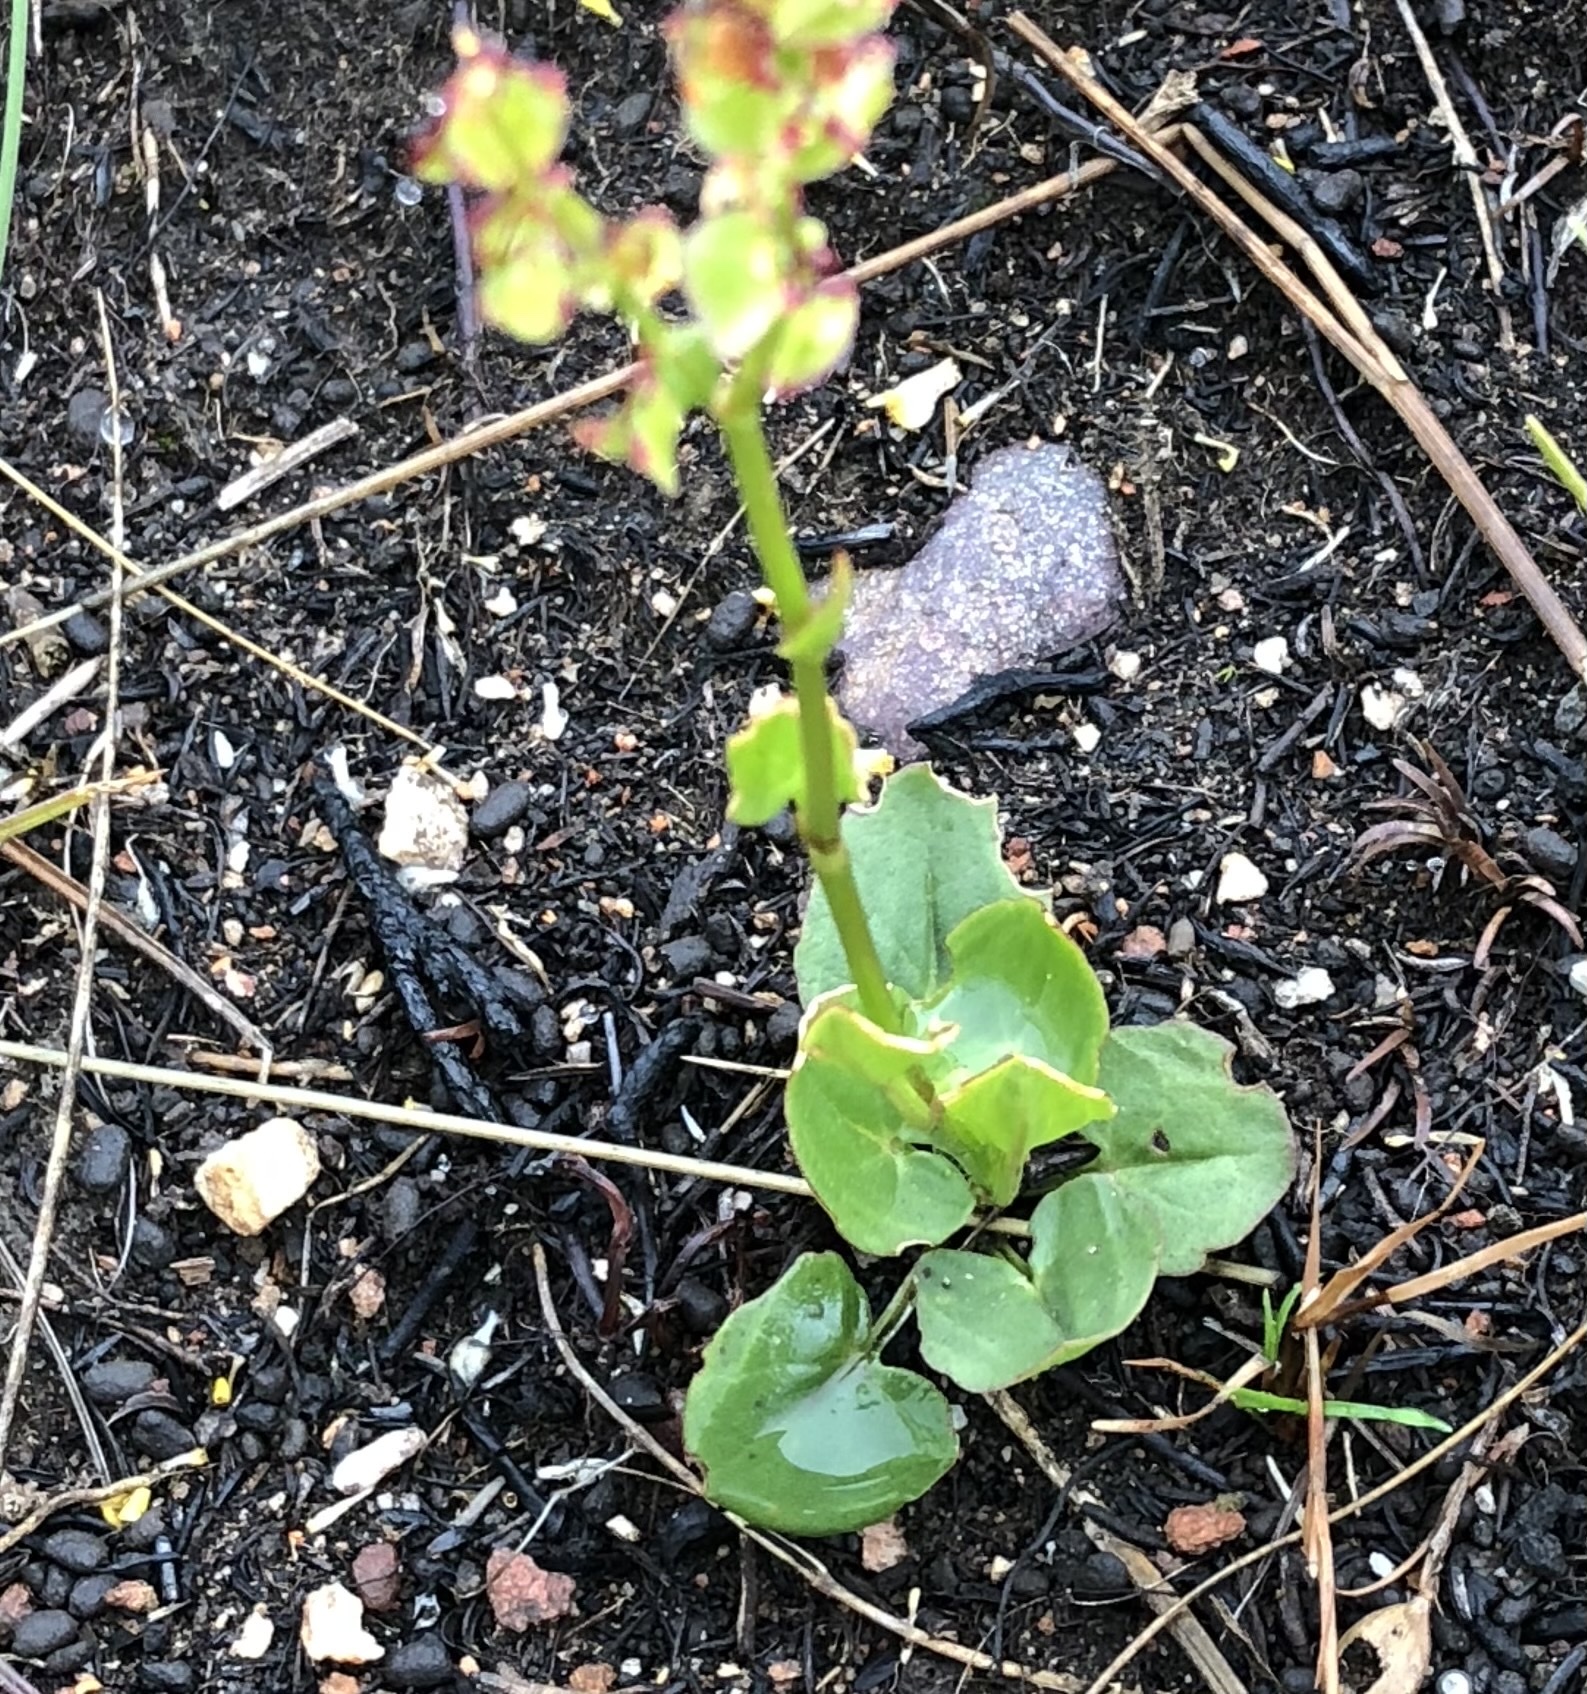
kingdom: Plantae
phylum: Tracheophyta
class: Magnoliopsida
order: Caryophyllales
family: Polygonaceae
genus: Rumex
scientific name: Rumex cordatus
